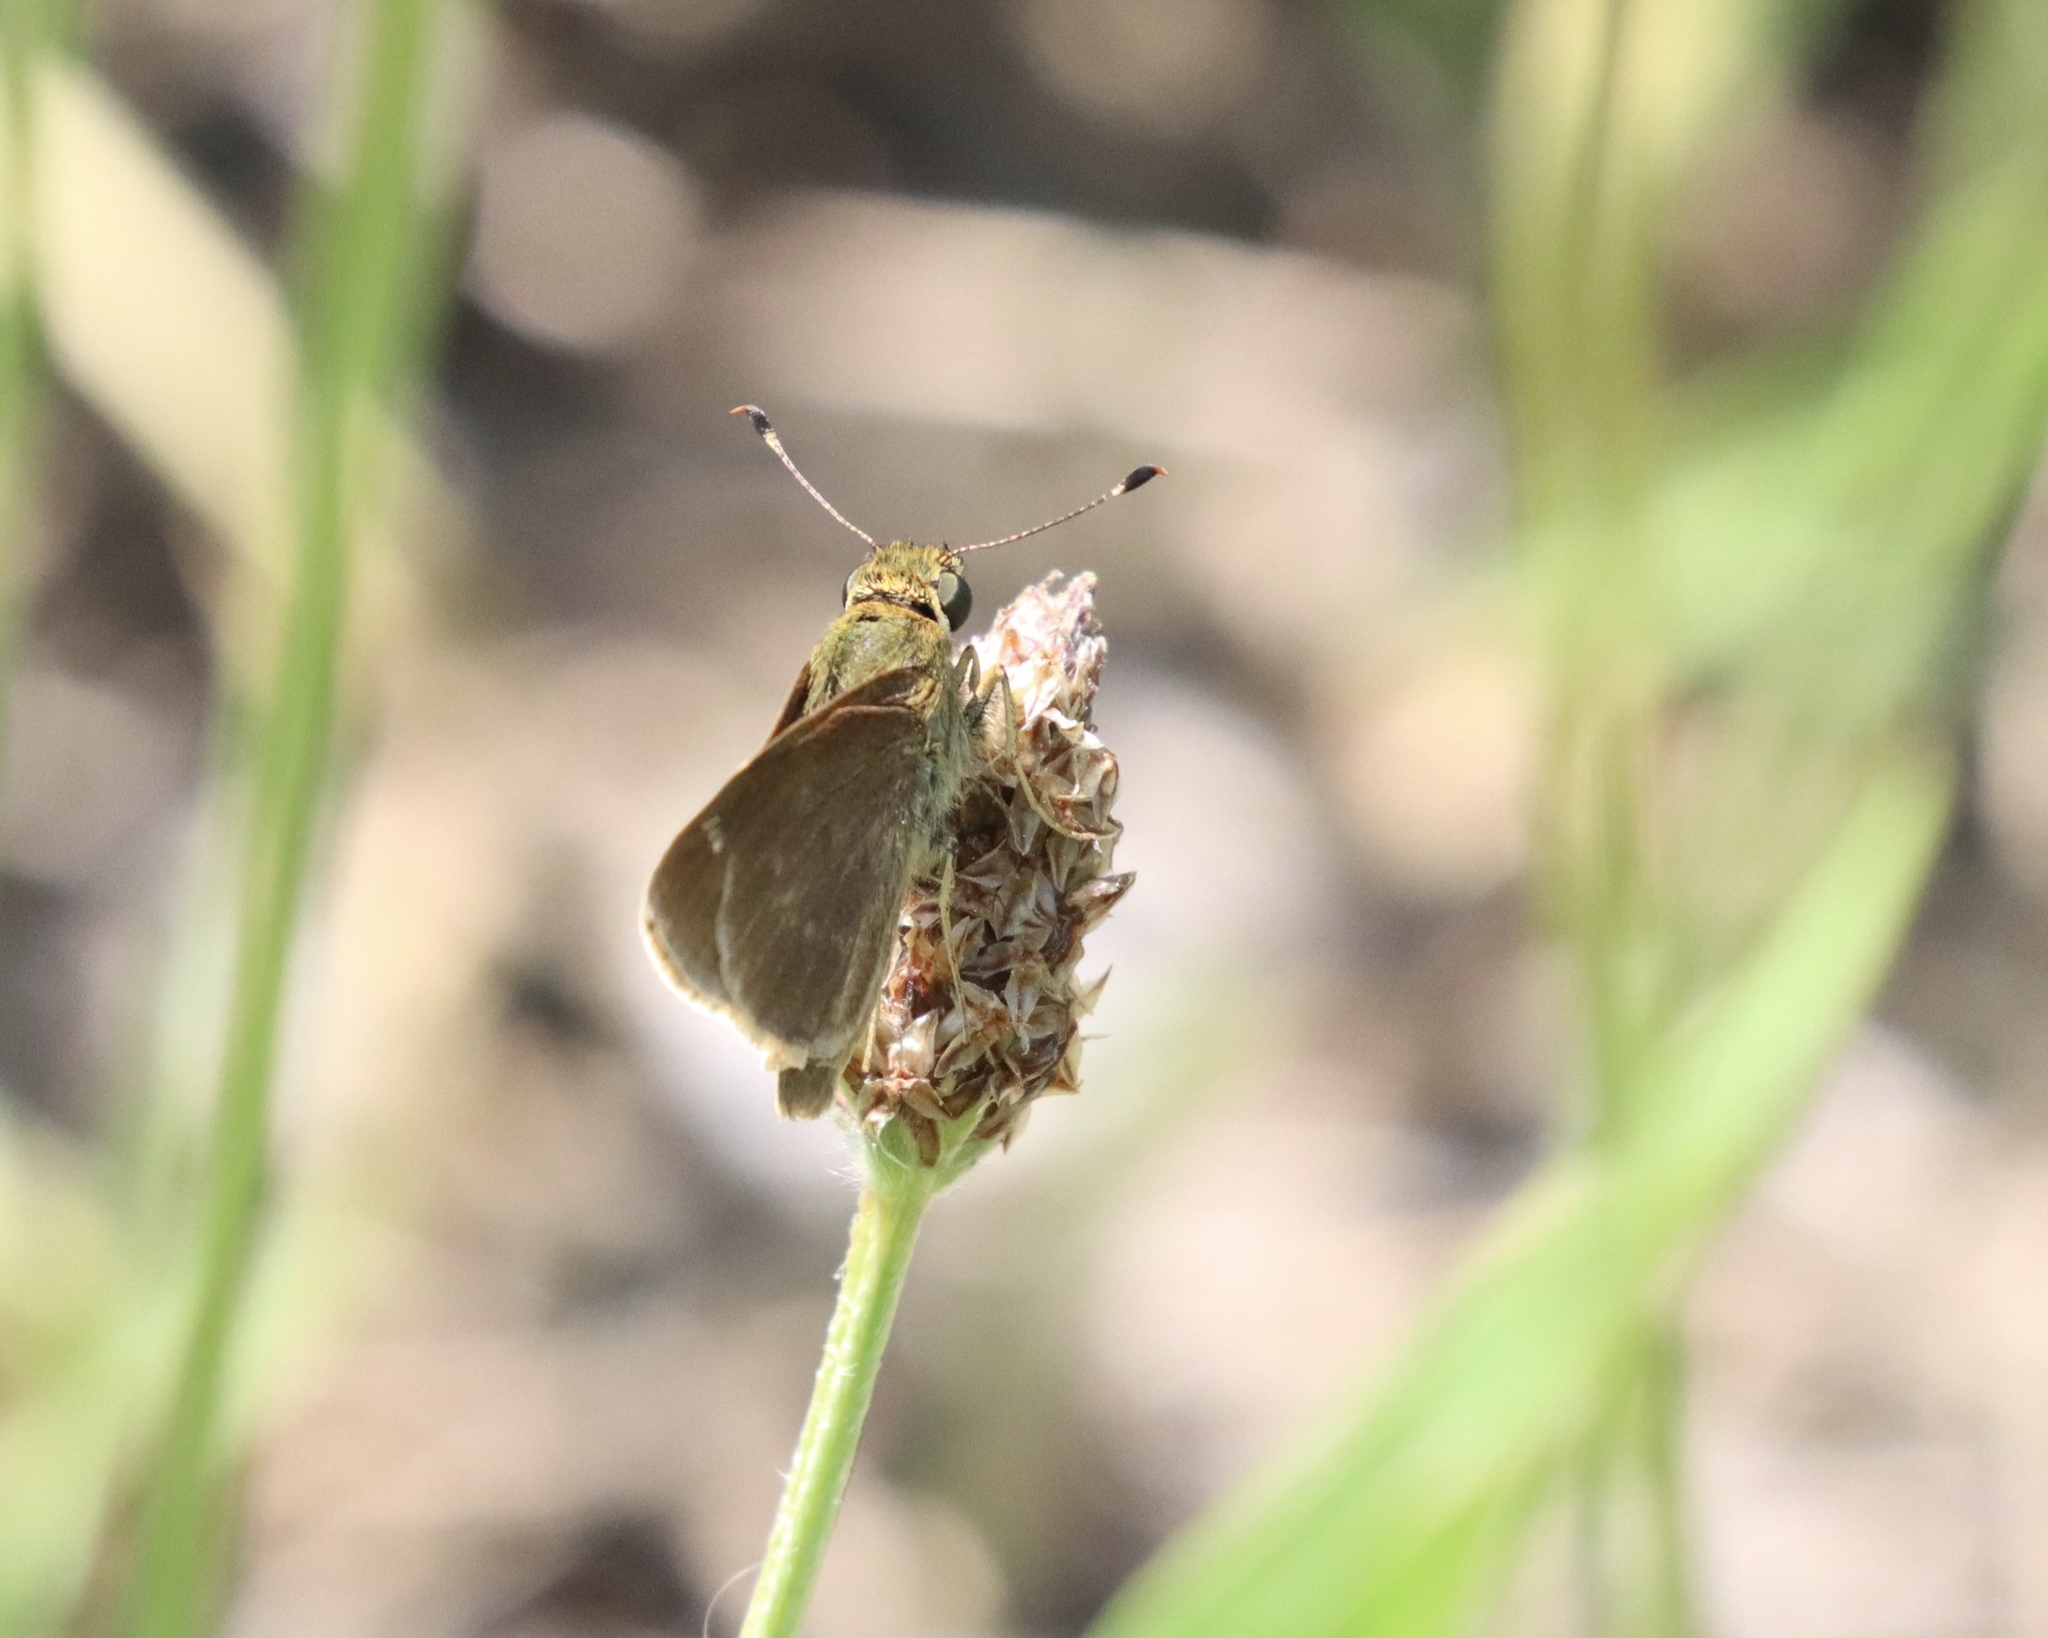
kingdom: Animalia
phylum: Arthropoda
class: Insecta
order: Lepidoptera
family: Hesperiidae
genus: Vernia
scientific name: Vernia verna
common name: Little glassywing
